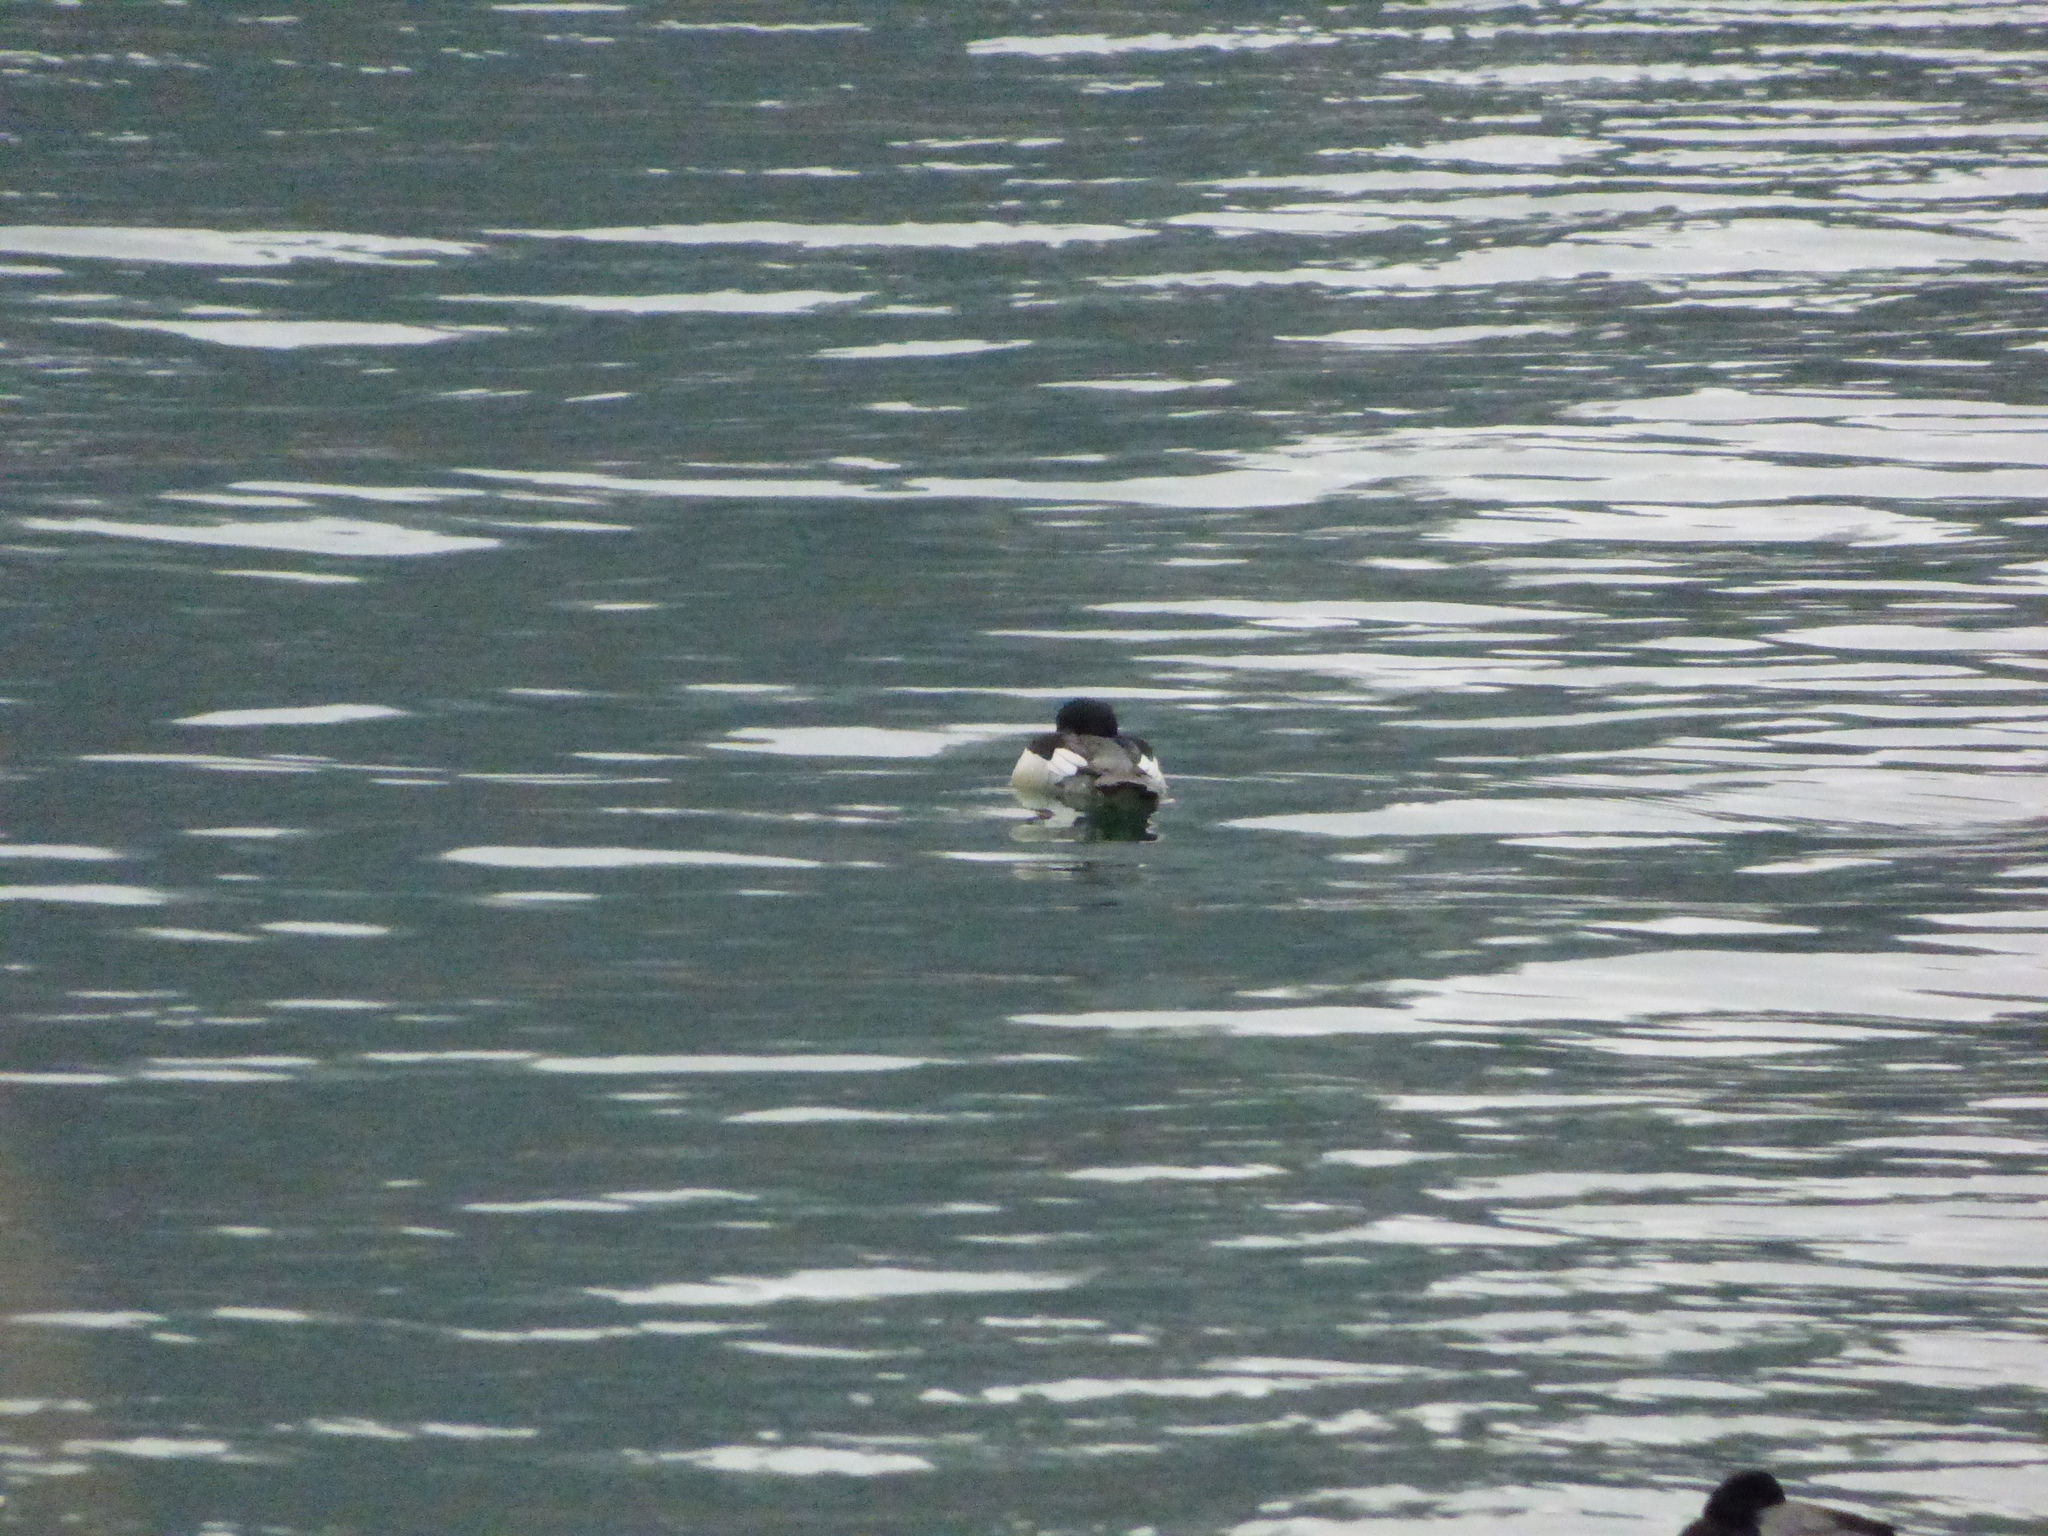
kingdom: Animalia
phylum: Chordata
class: Aves
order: Anseriformes
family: Anatidae
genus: Mergus
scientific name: Mergus merganser
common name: Common merganser
